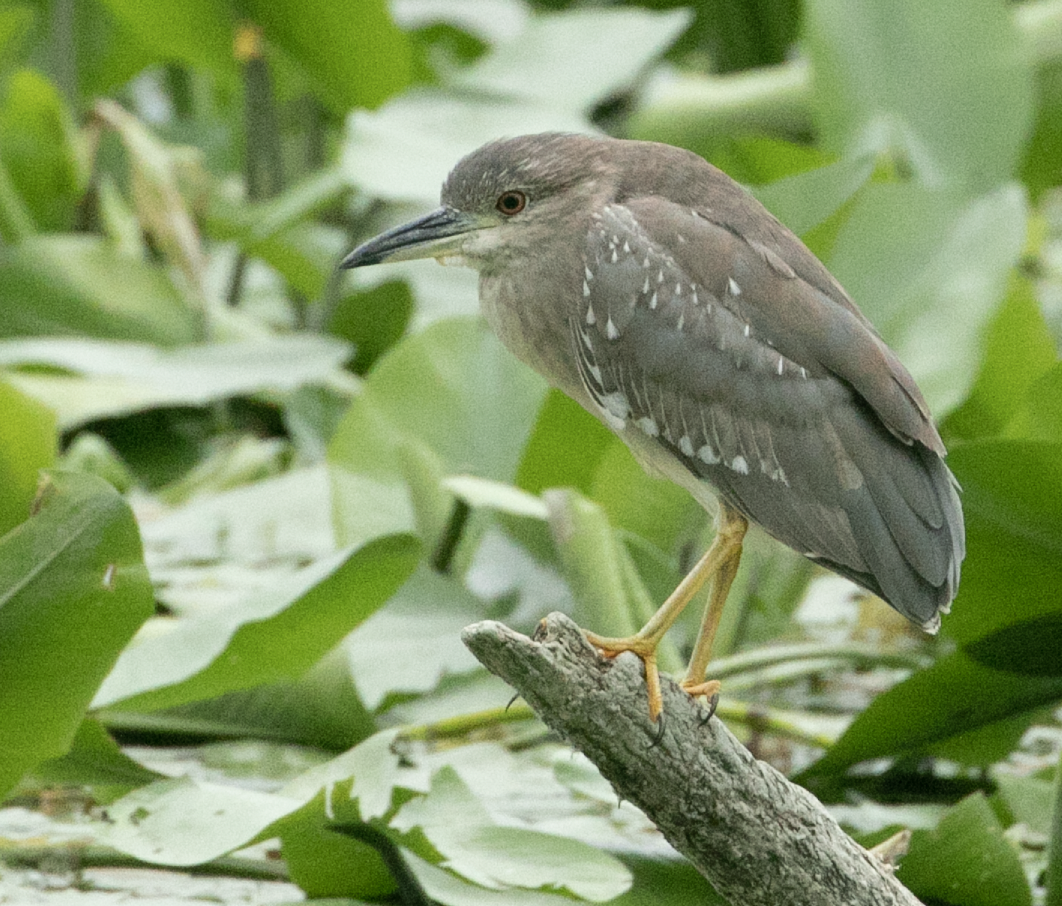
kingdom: Animalia
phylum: Chordata
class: Aves
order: Pelecaniformes
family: Ardeidae
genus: Nycticorax
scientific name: Nycticorax nycticorax
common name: Black-crowned night heron
